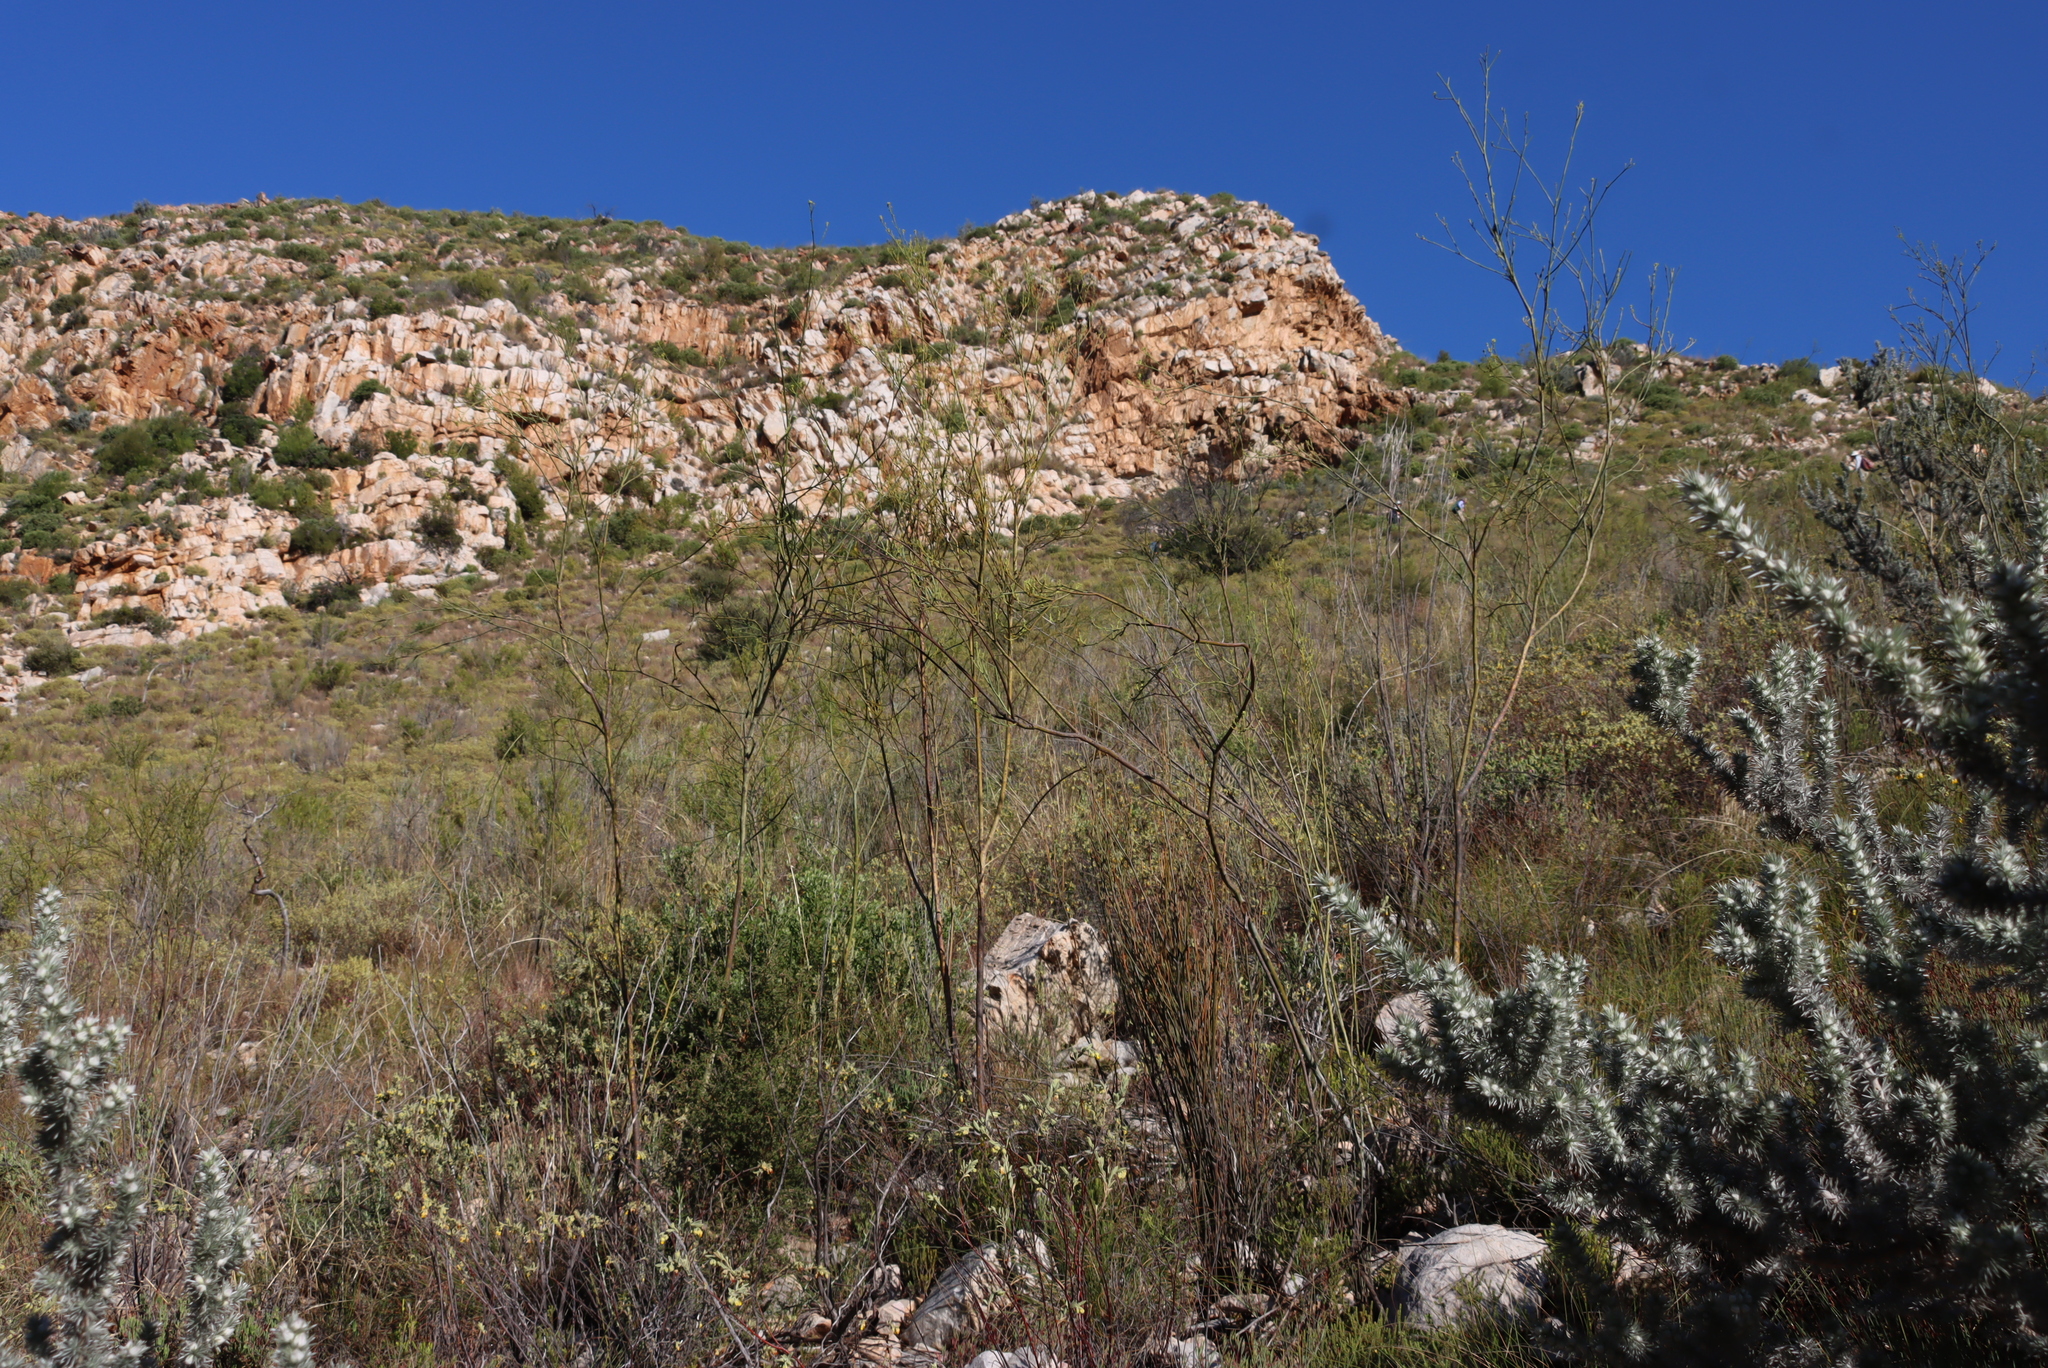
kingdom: Plantae
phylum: Tracheophyta
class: Magnoliopsida
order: Santalales
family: Thesiaceae
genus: Thesium
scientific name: Thesium strictum
